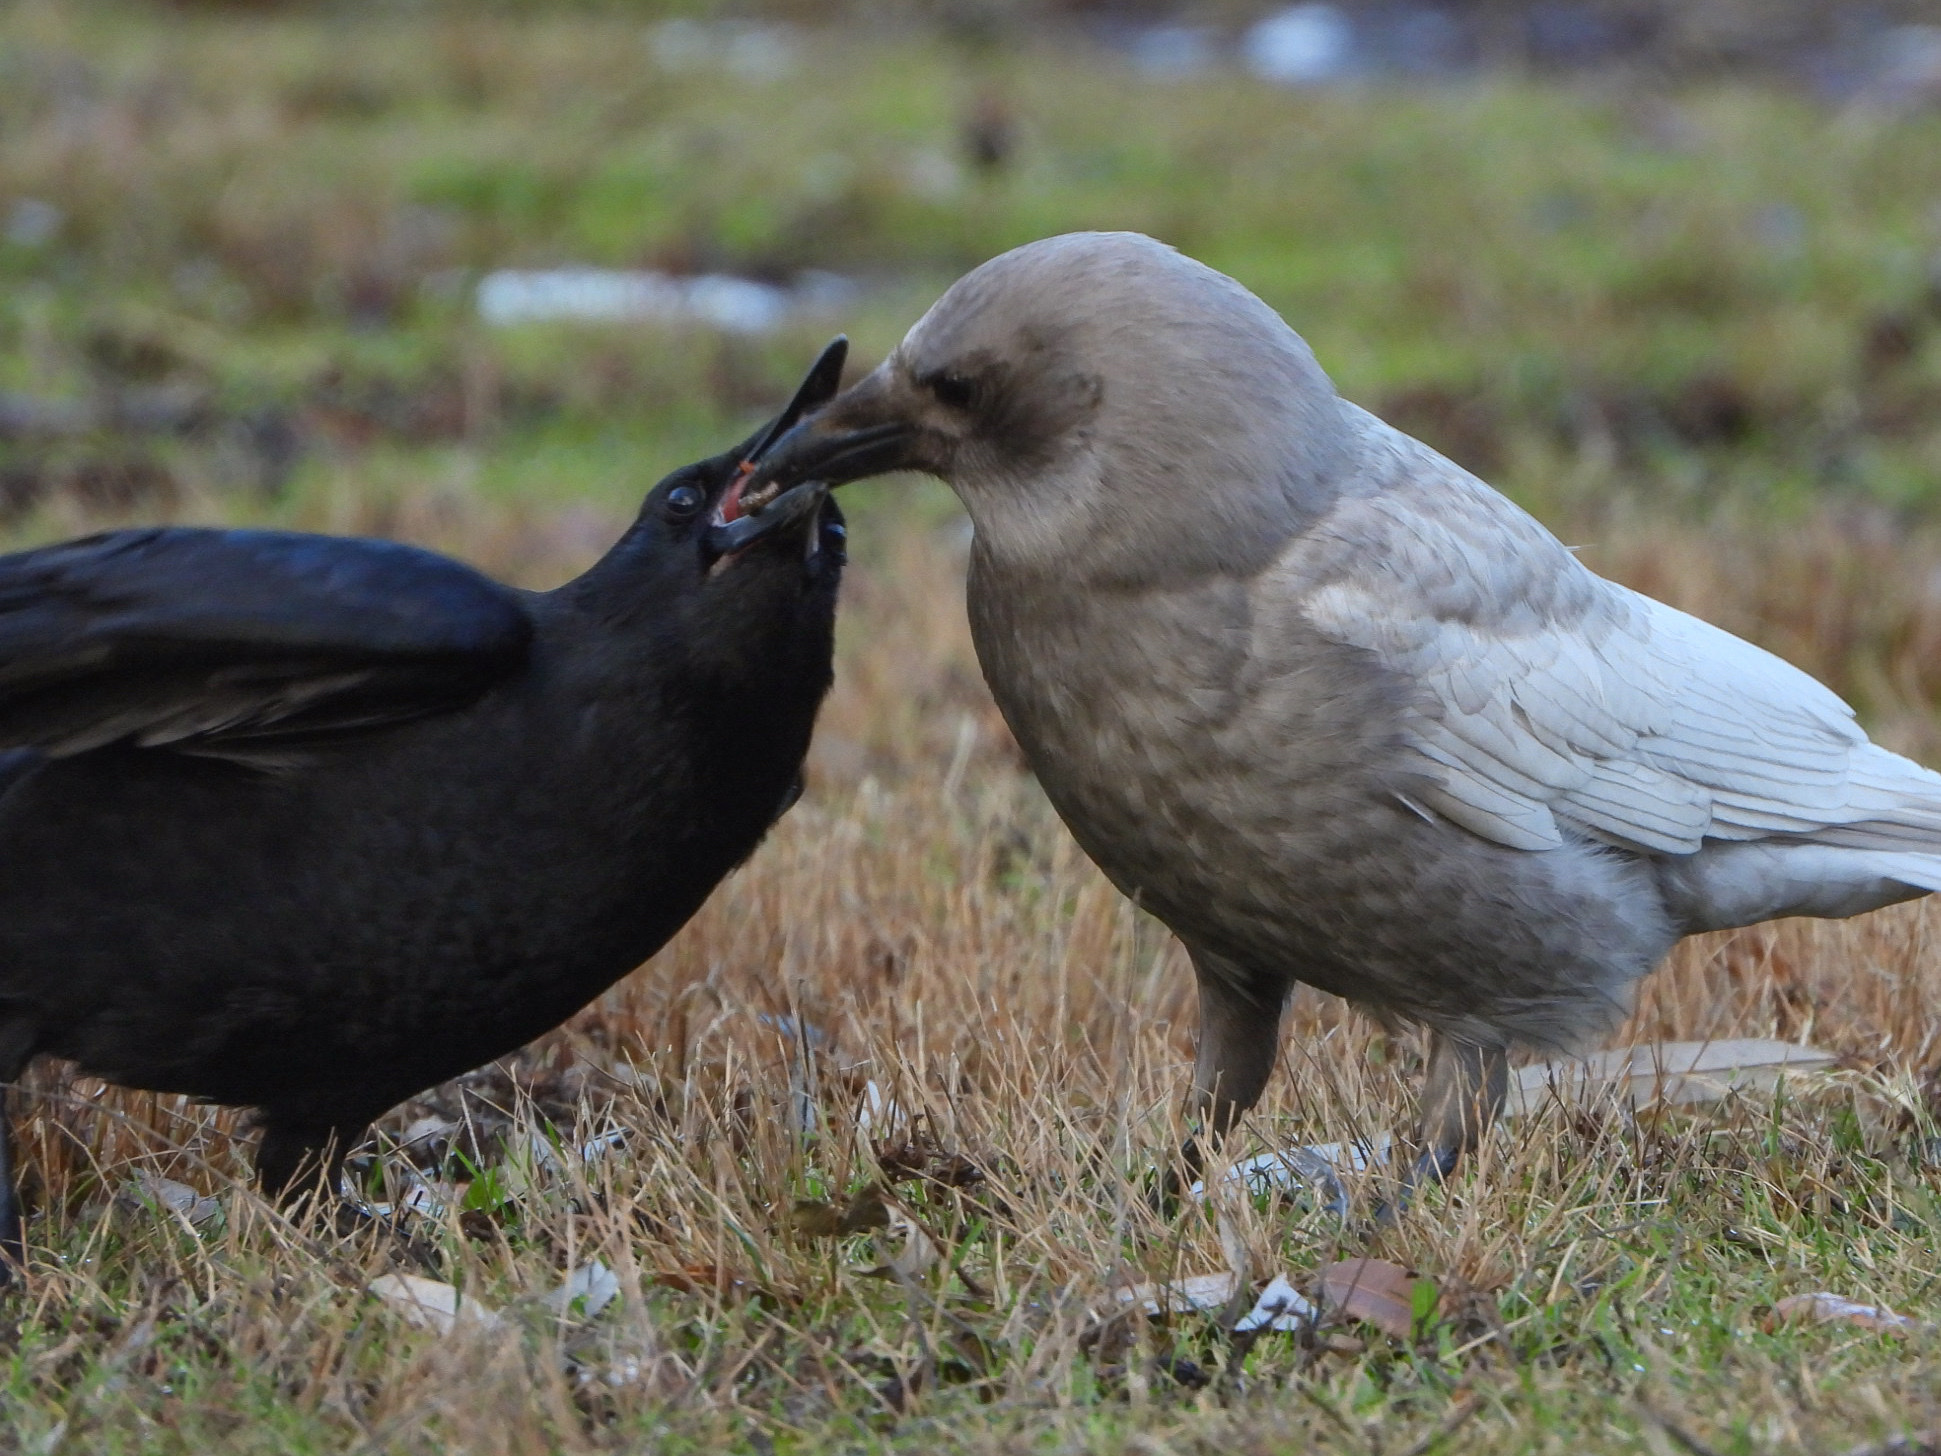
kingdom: Animalia
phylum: Chordata
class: Aves
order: Passeriformes
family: Corvidae
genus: Corvus
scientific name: Corvus brachyrhynchos
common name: American crow
